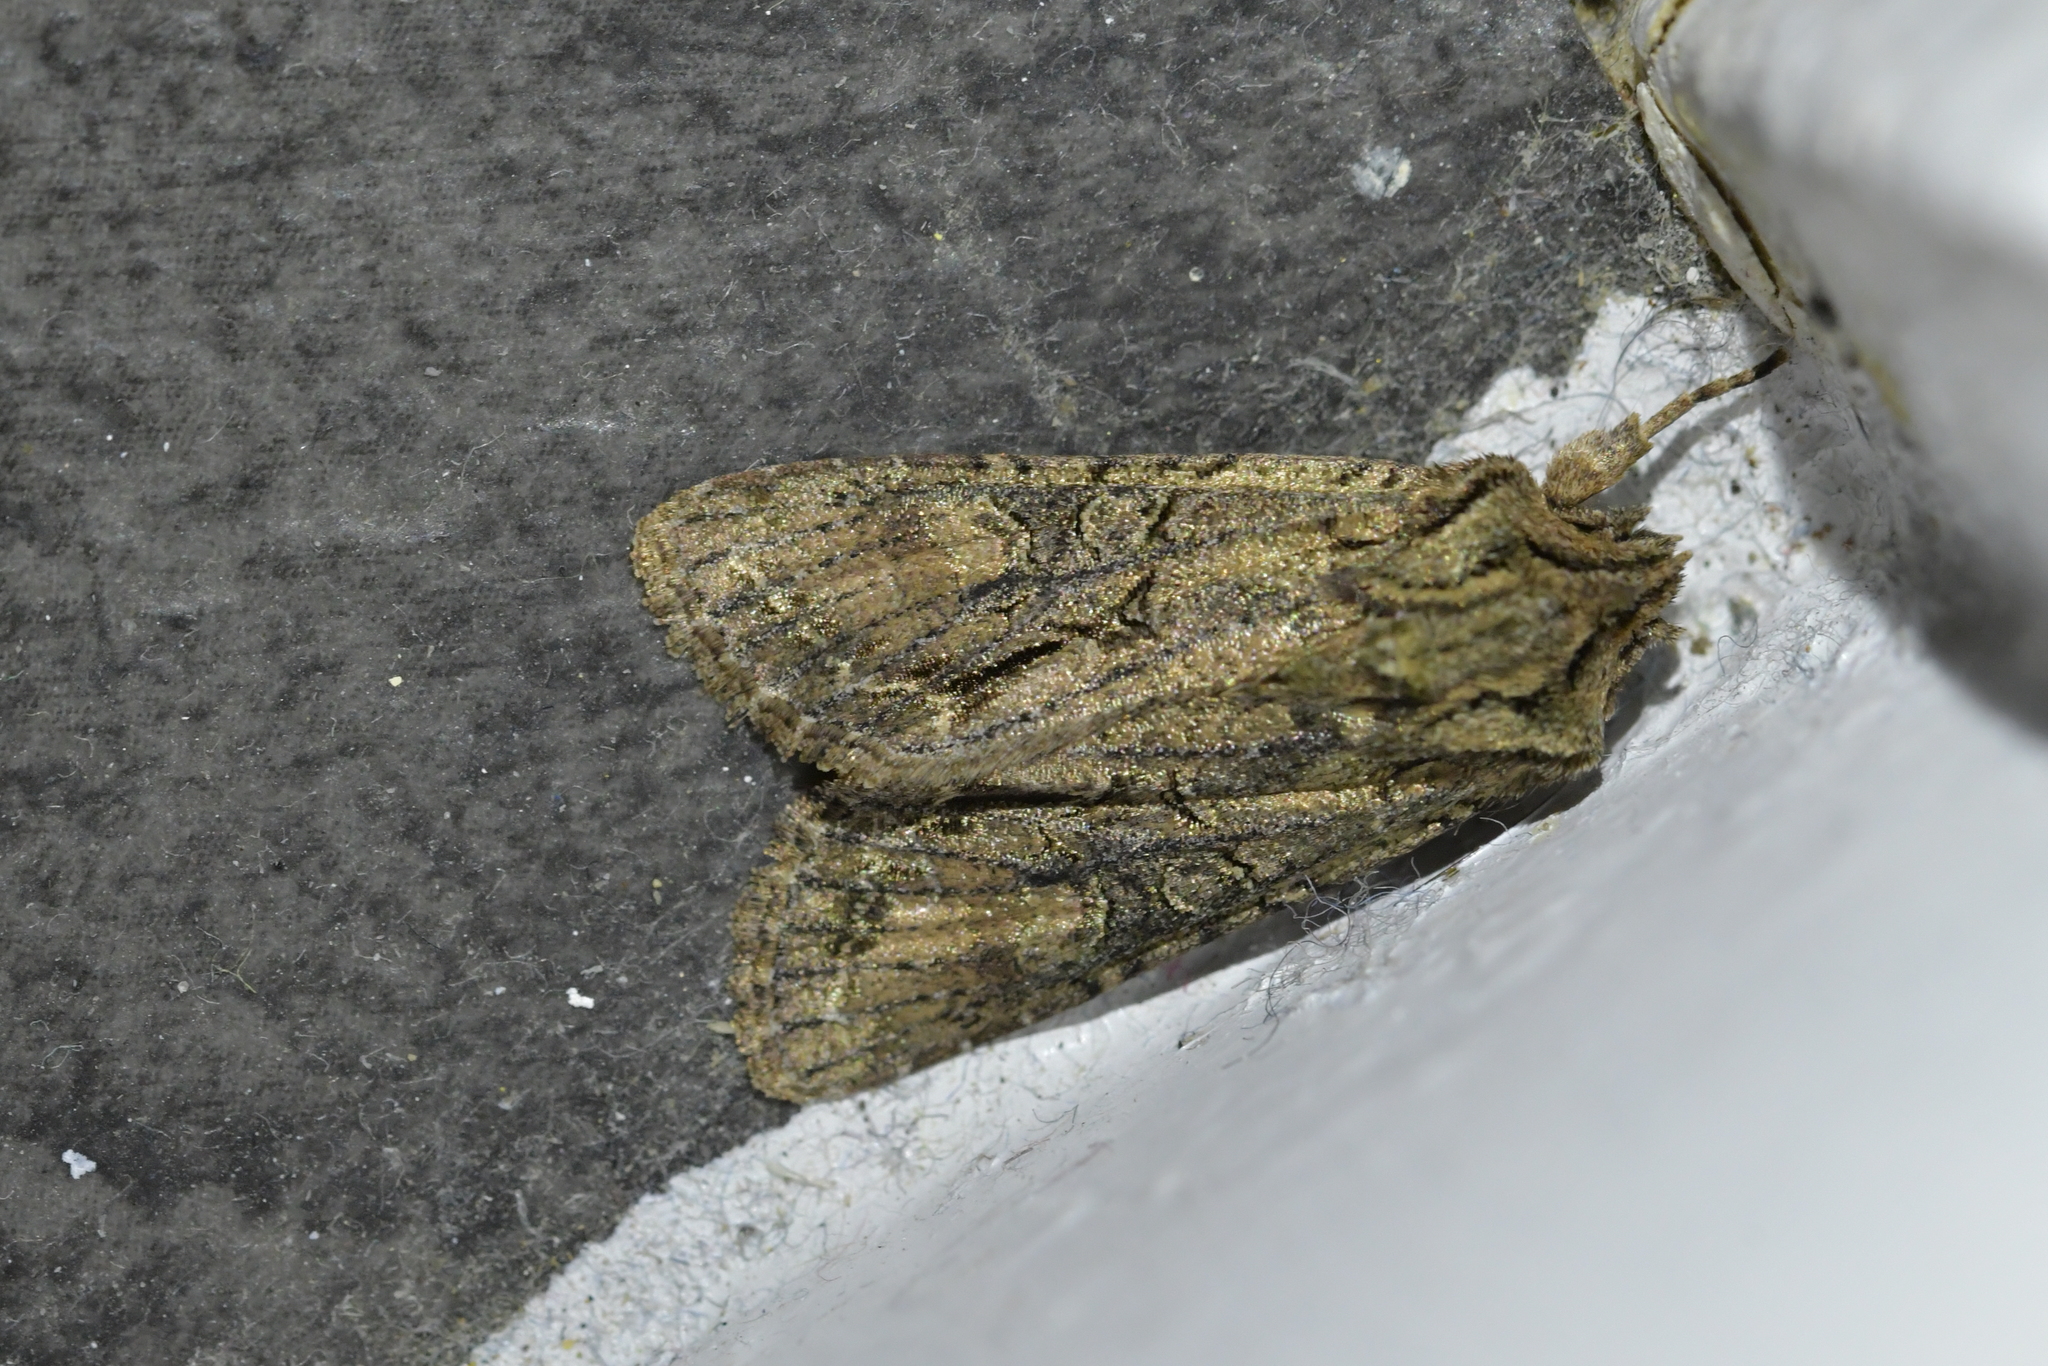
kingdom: Animalia
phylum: Arthropoda
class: Insecta
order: Lepidoptera
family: Noctuidae
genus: Ichneutica
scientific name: Ichneutica mutans
